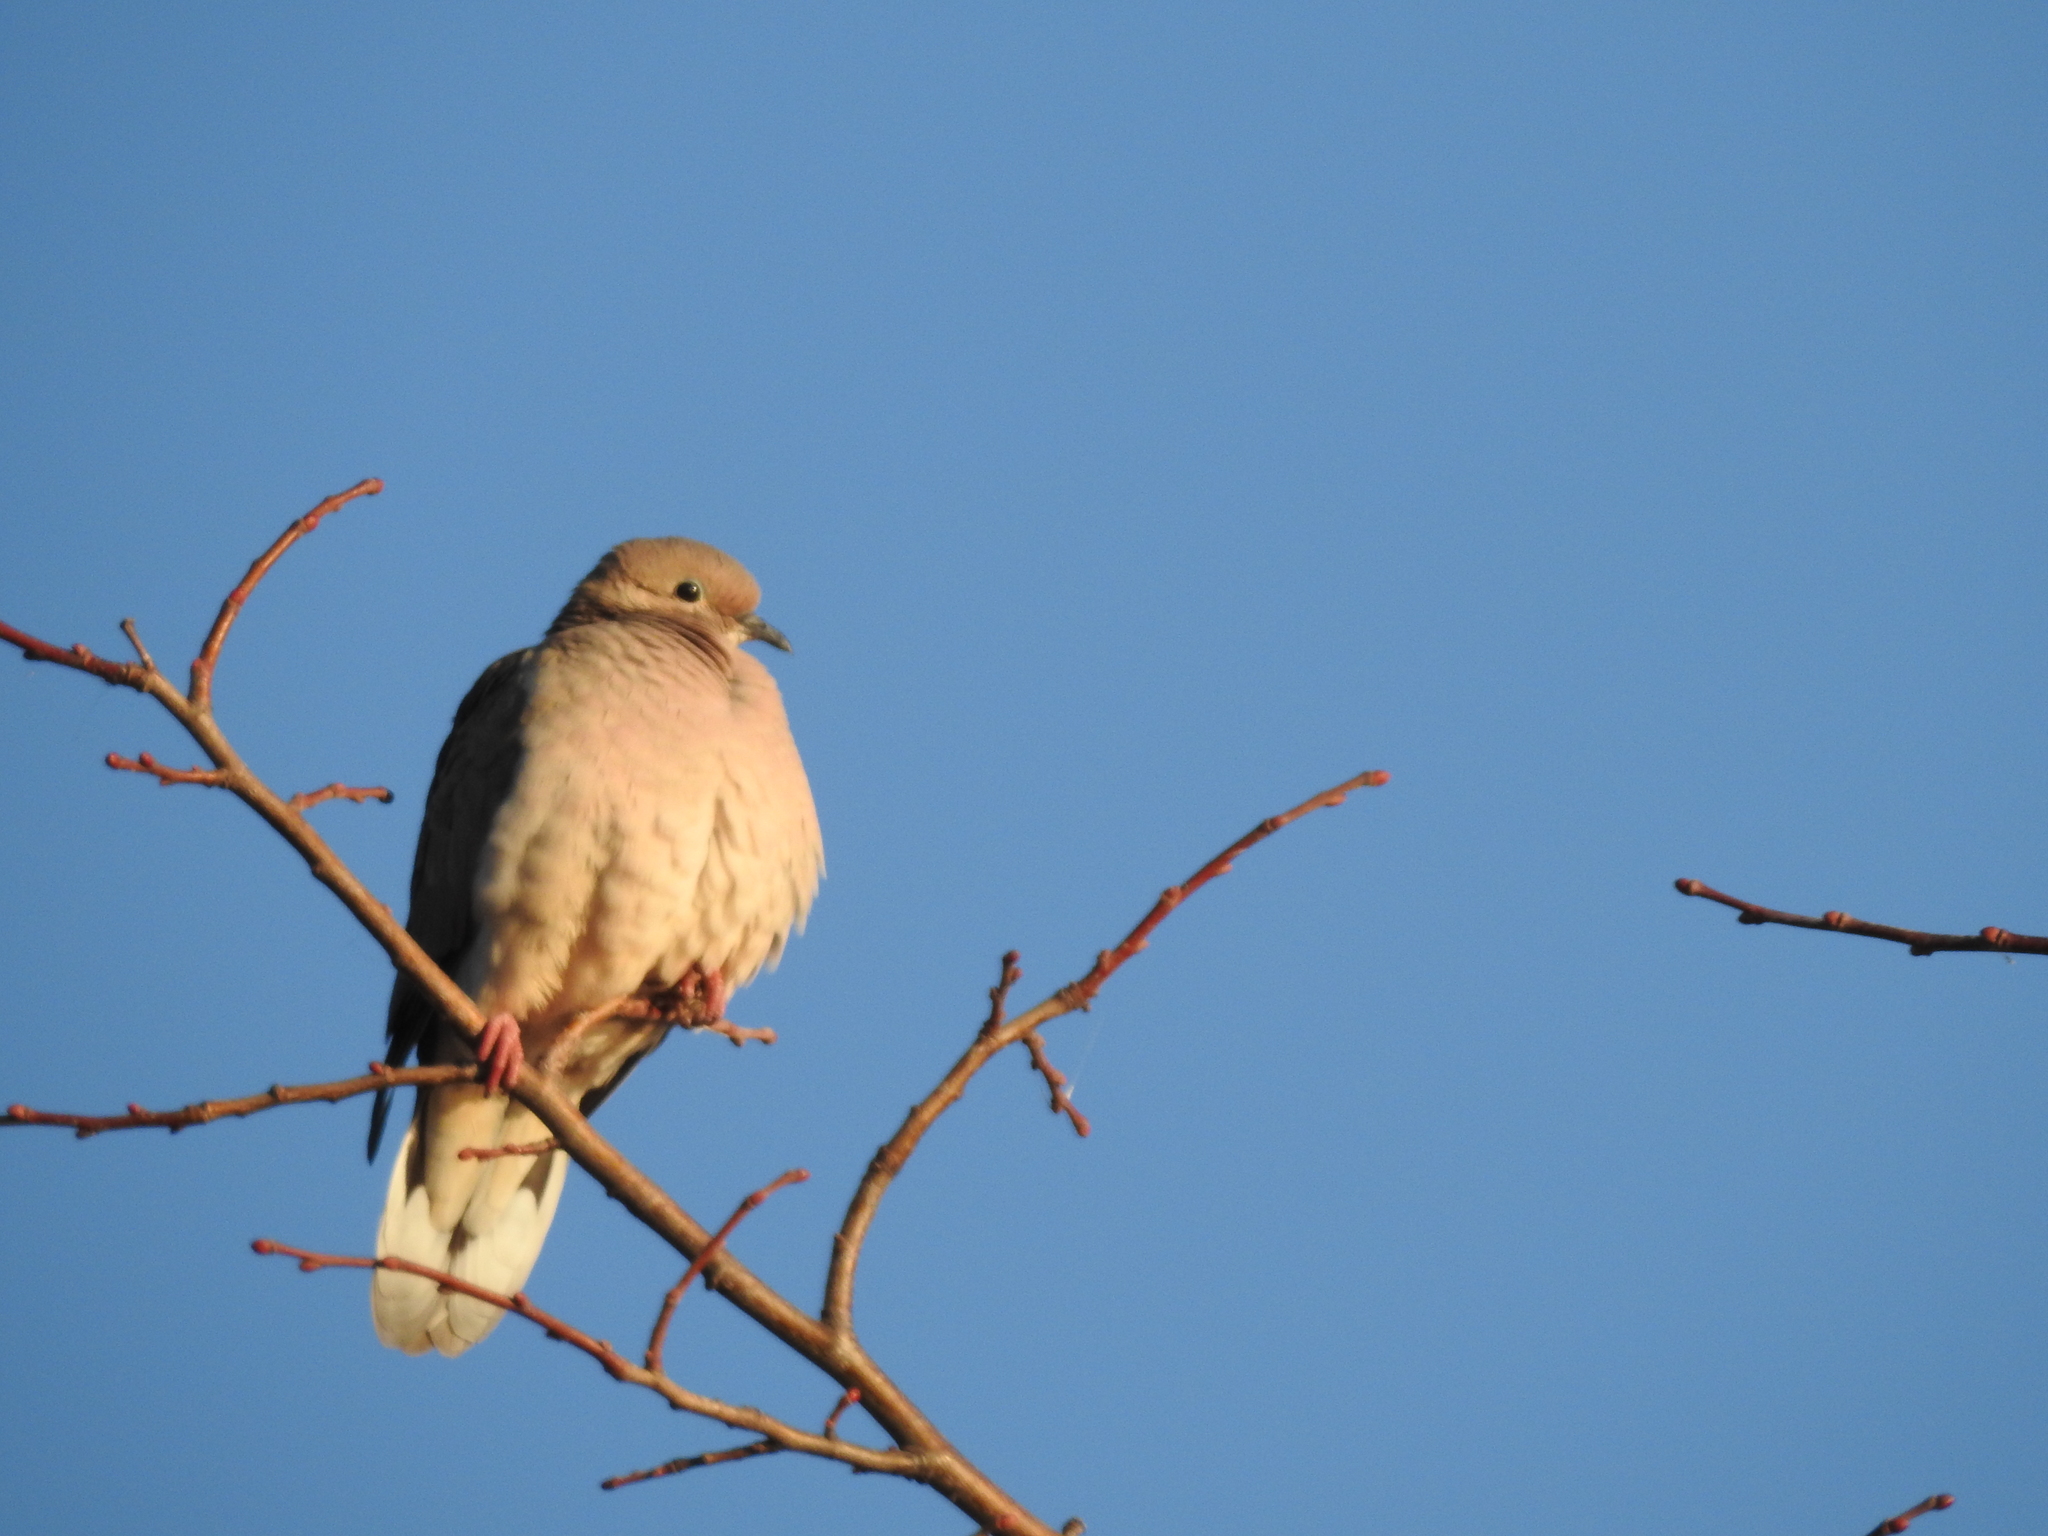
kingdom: Animalia
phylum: Chordata
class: Aves
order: Columbiformes
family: Columbidae
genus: Zenaida
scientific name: Zenaida auriculata
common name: Eared dove
